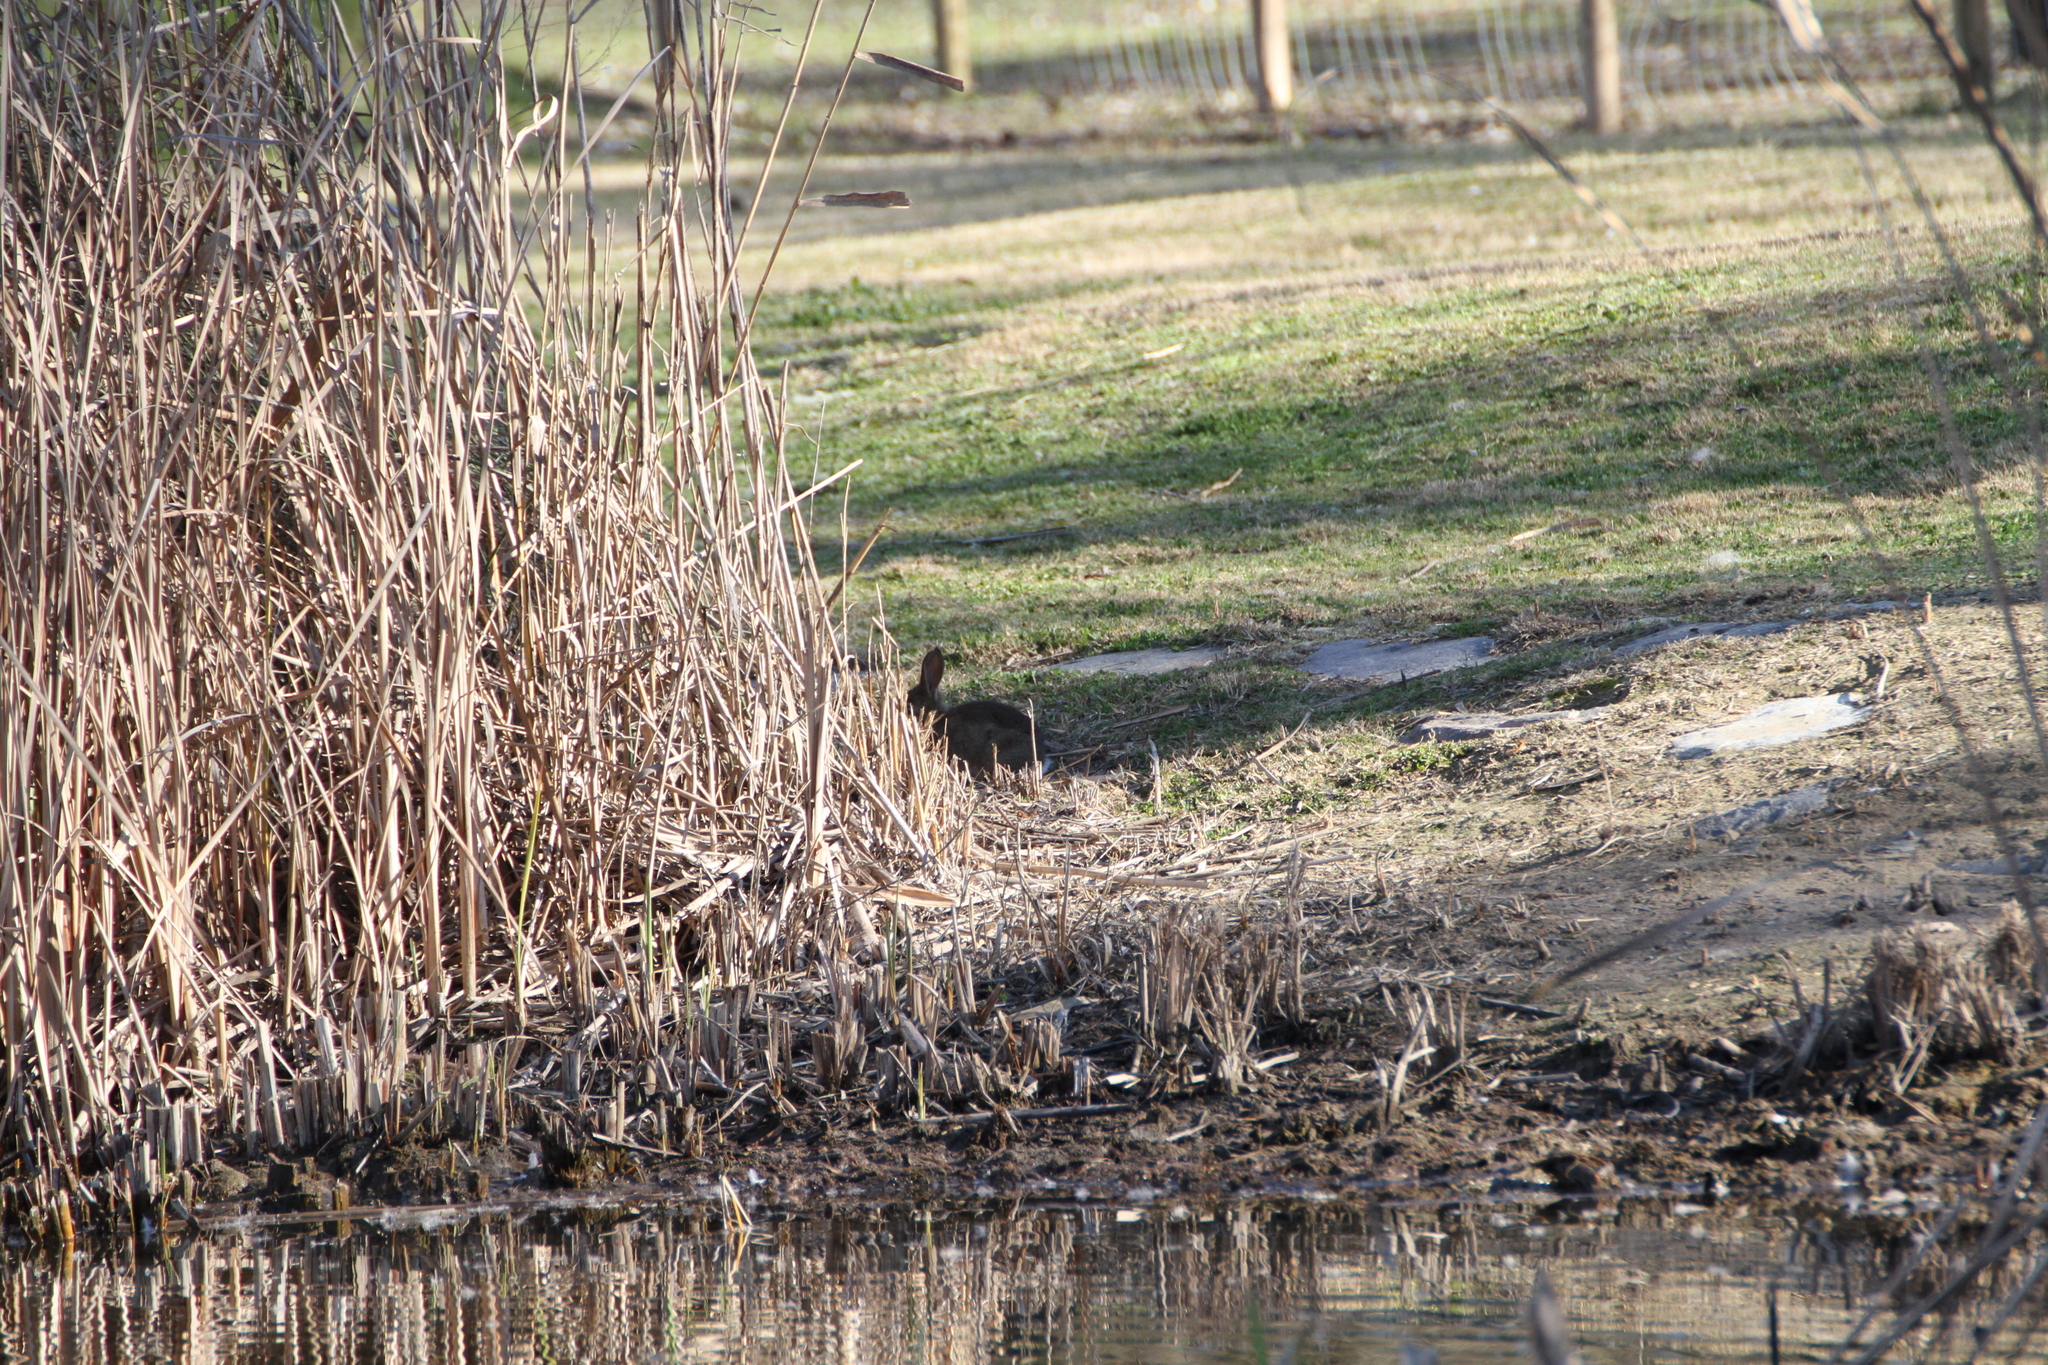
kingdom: Animalia
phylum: Chordata
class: Mammalia
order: Lagomorpha
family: Leporidae
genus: Oryctolagus
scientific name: Oryctolagus cuniculus
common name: European rabbit
